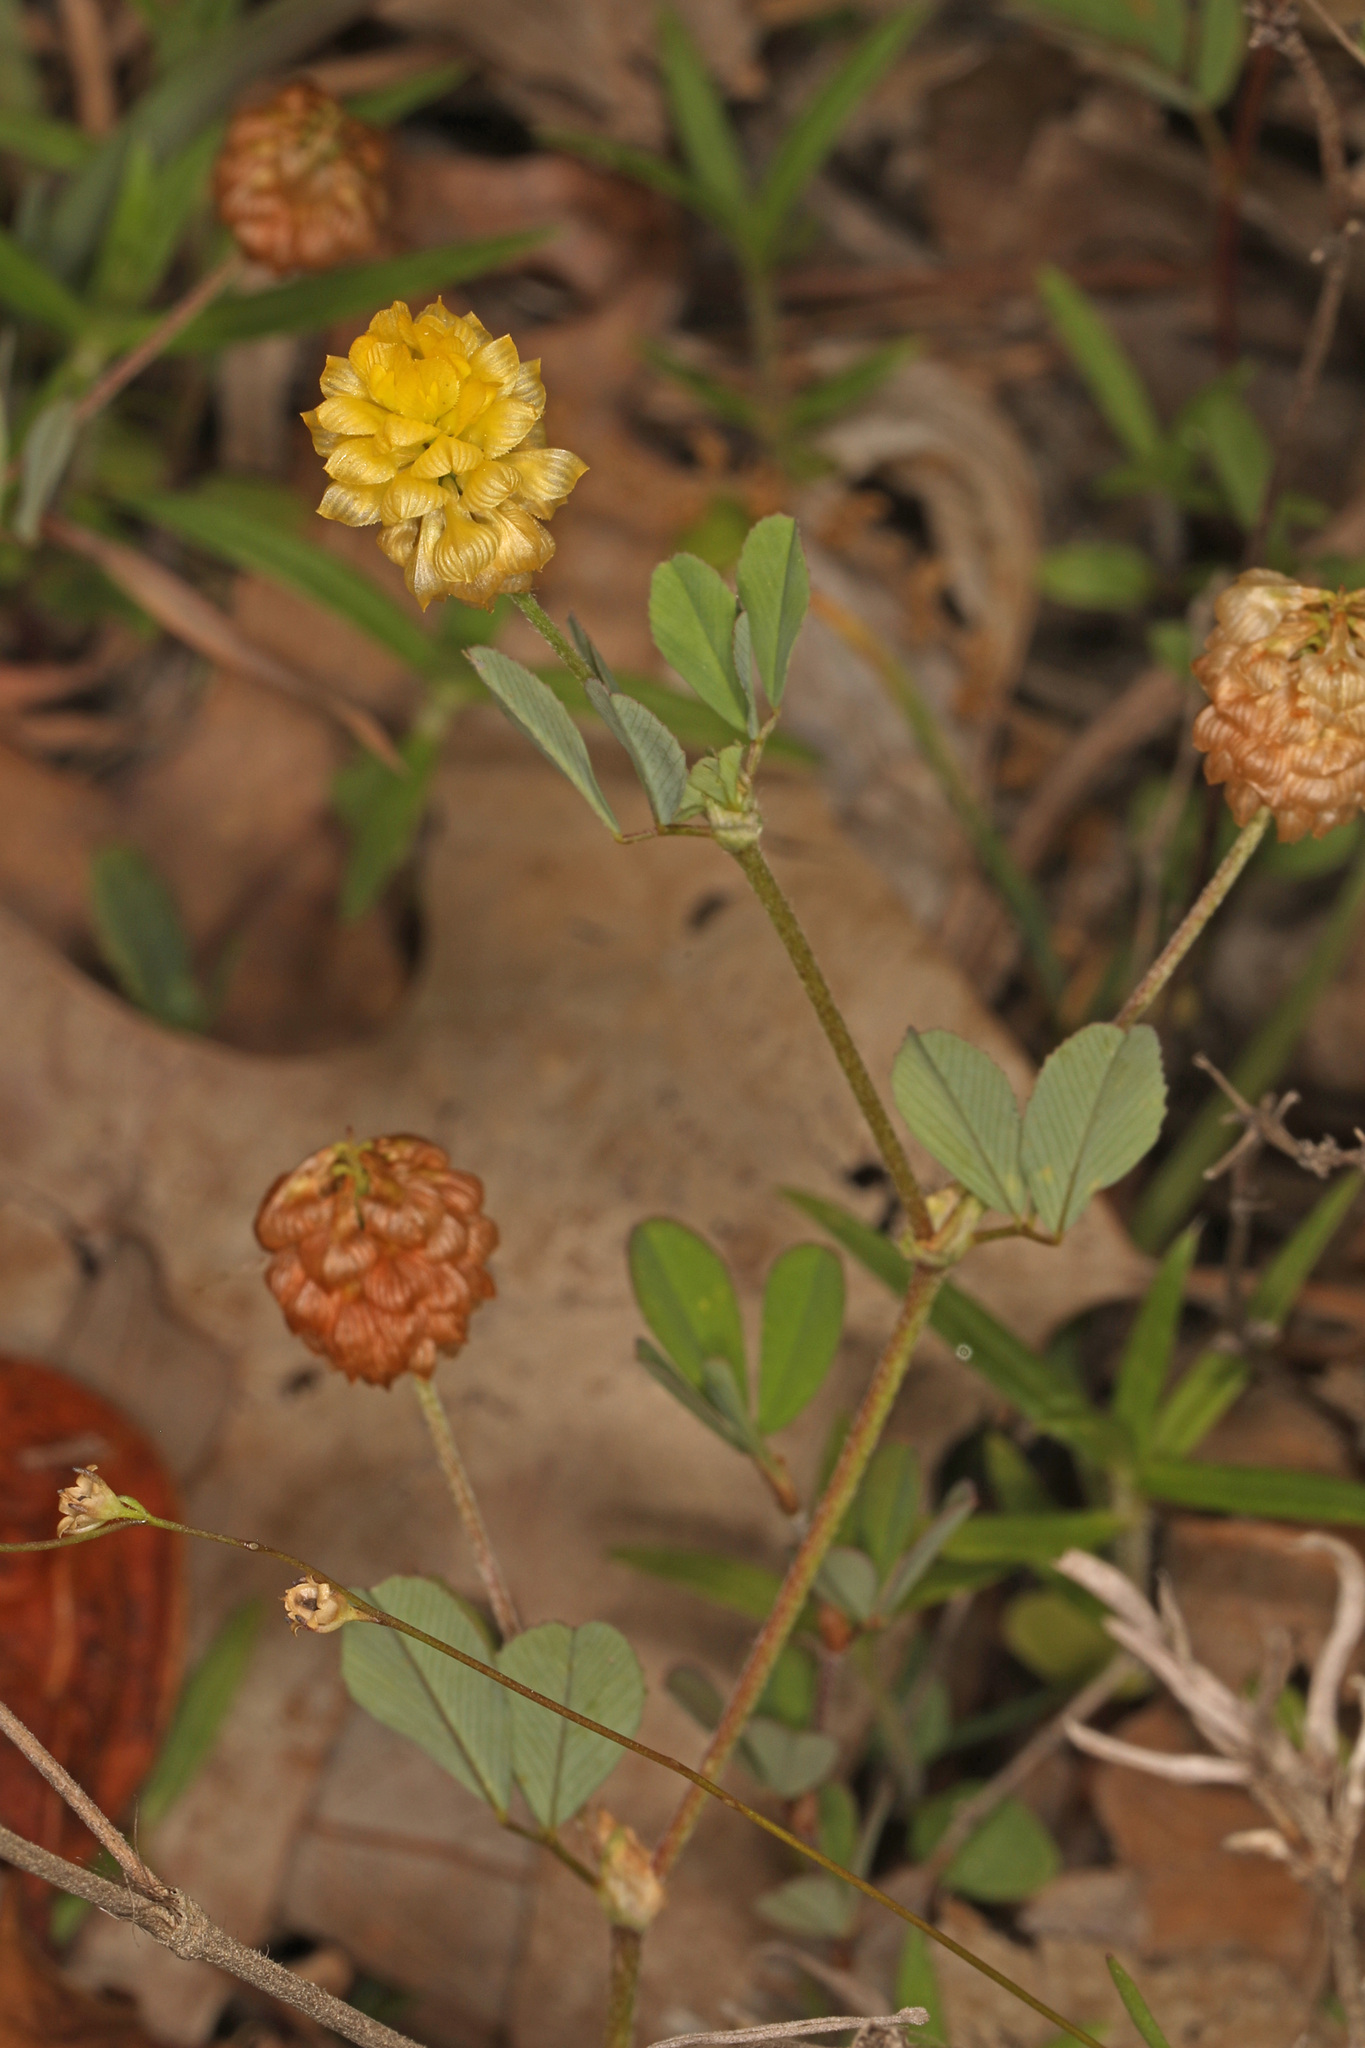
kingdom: Plantae
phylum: Tracheophyta
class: Magnoliopsida
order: Fabales
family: Fabaceae
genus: Trifolium
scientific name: Trifolium campestre
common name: Field clover
